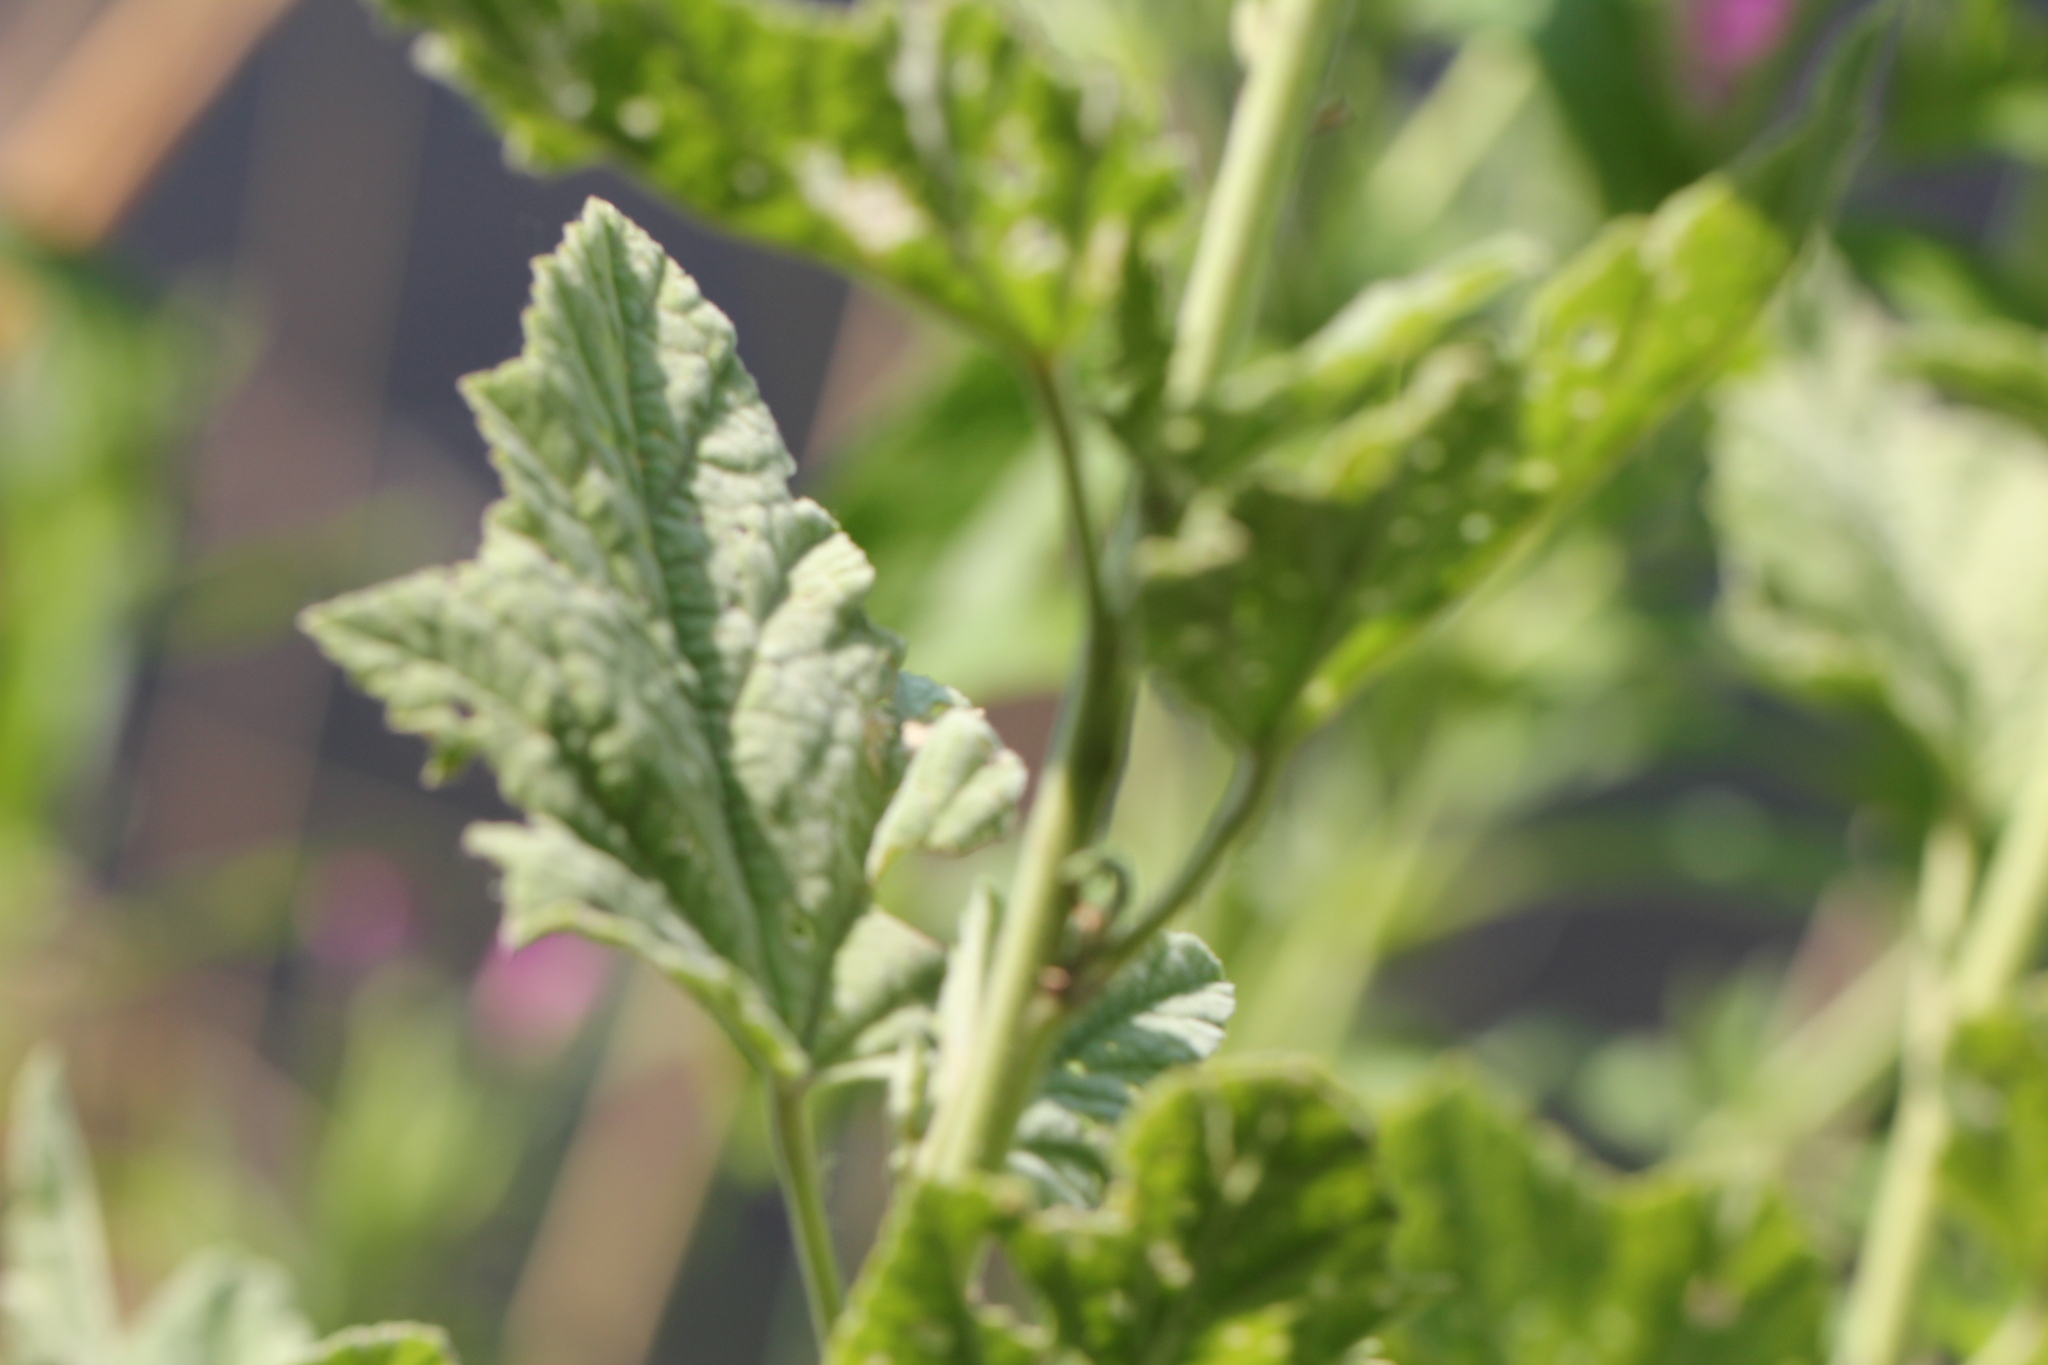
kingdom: Plantae
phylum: Tracheophyta
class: Magnoliopsida
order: Malvales
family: Malvaceae
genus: Althaea
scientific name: Althaea officinalis
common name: Marsh-mallow
